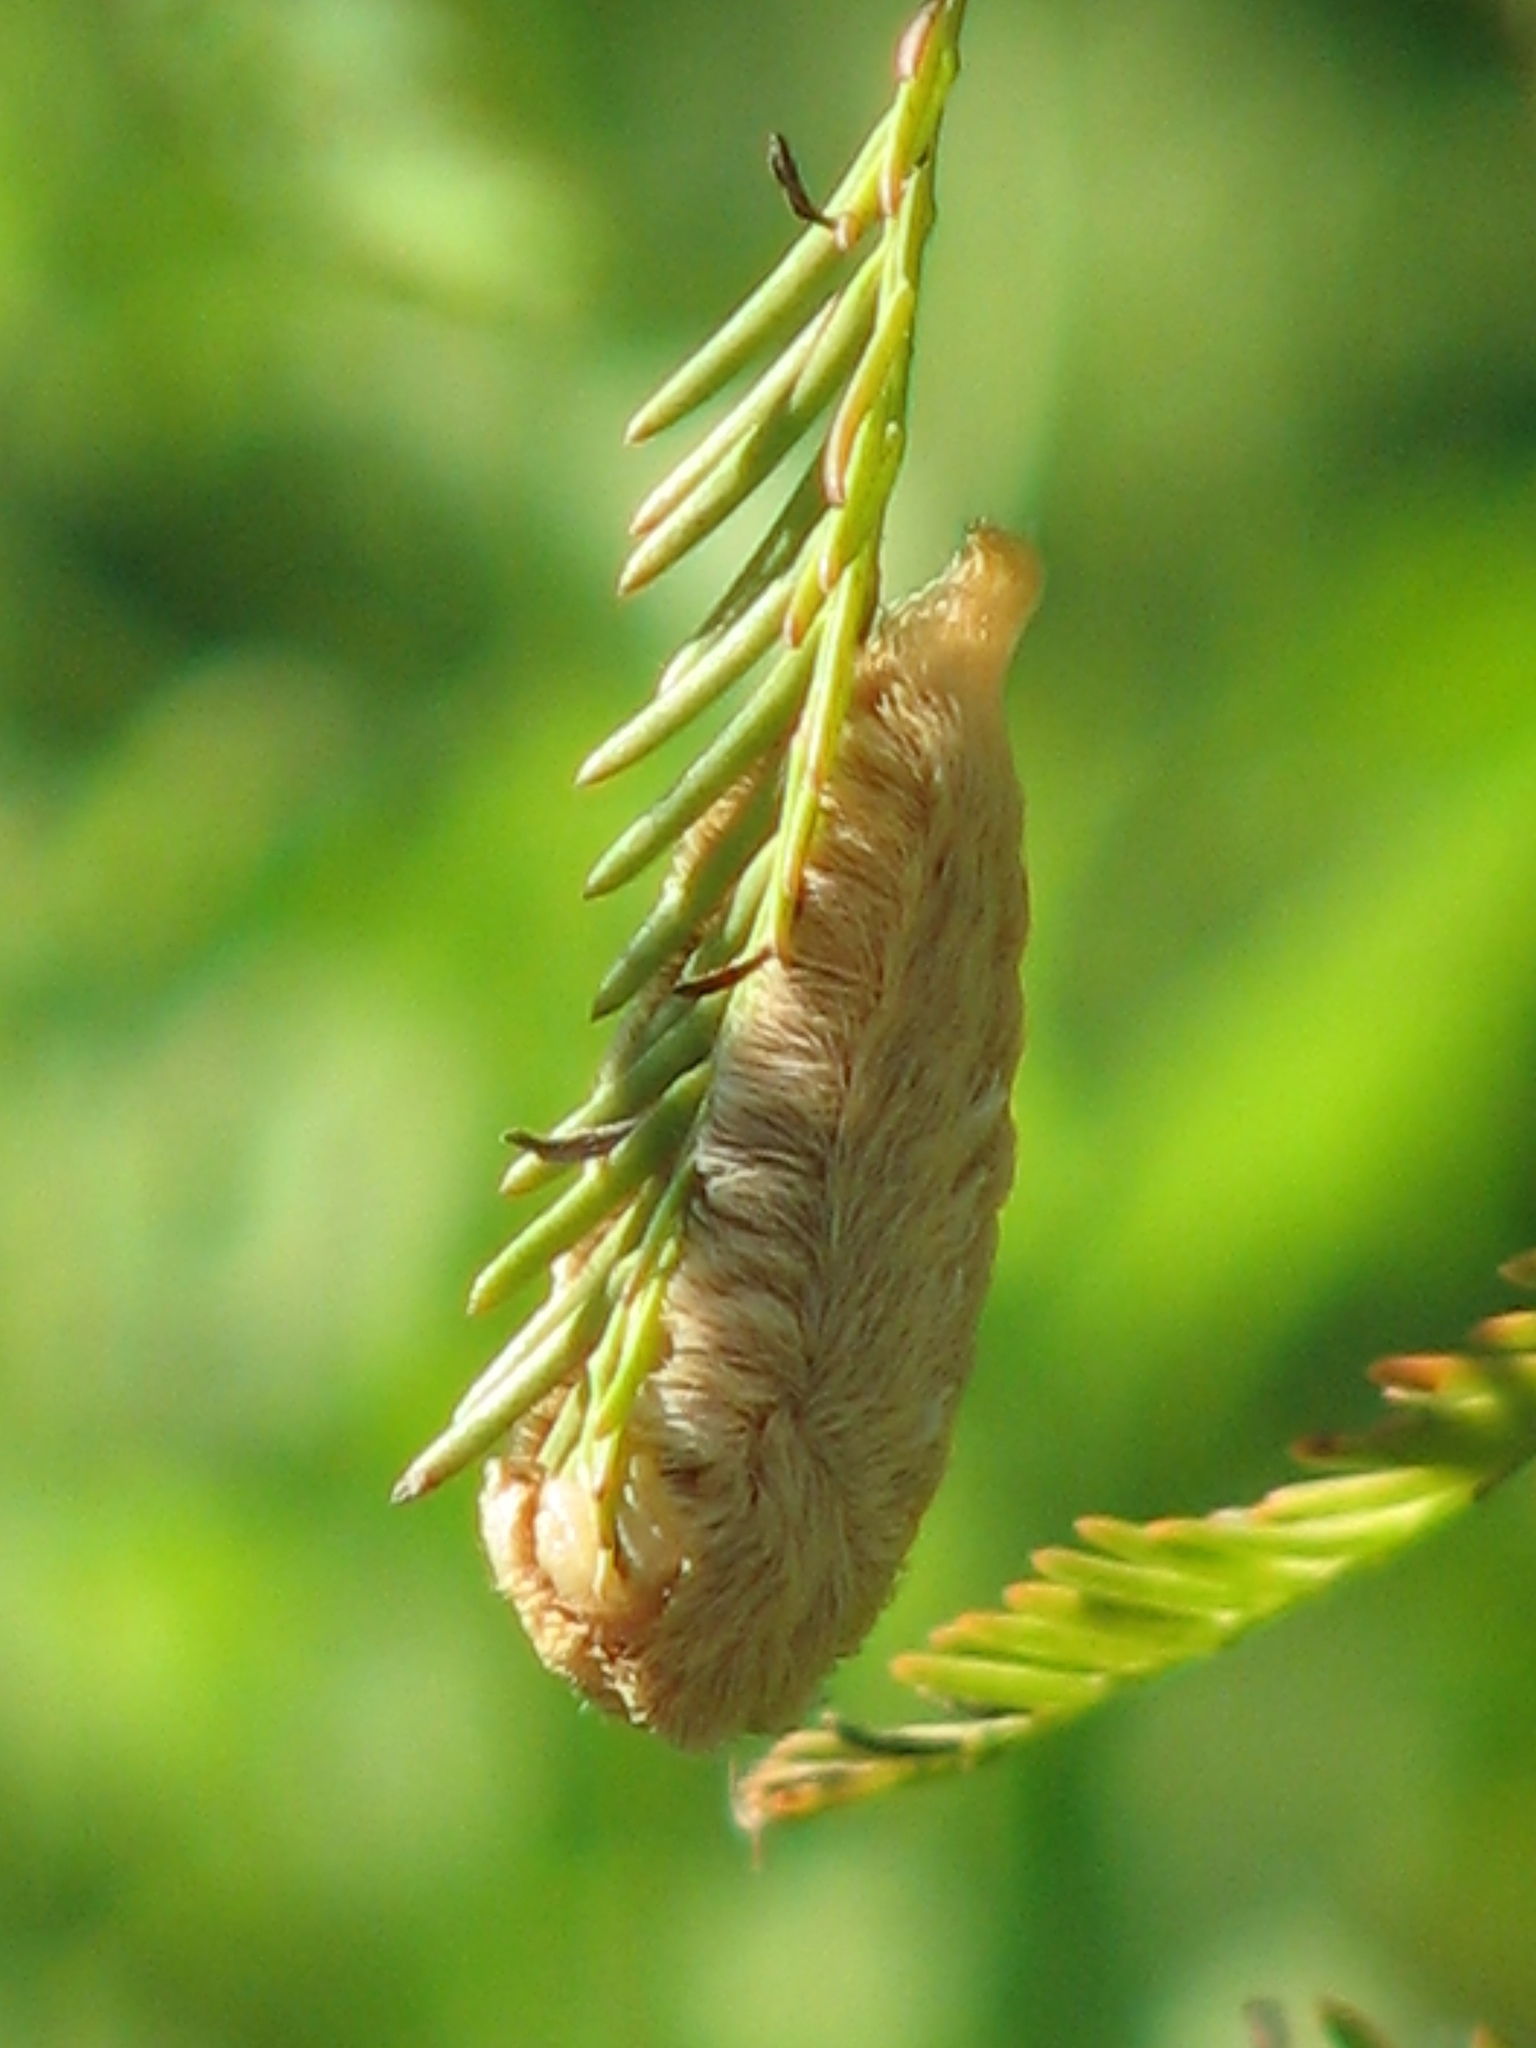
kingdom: Animalia
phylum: Arthropoda
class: Insecta
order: Lepidoptera
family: Megalopygidae
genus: Megalopyge
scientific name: Megalopyge opercularis
